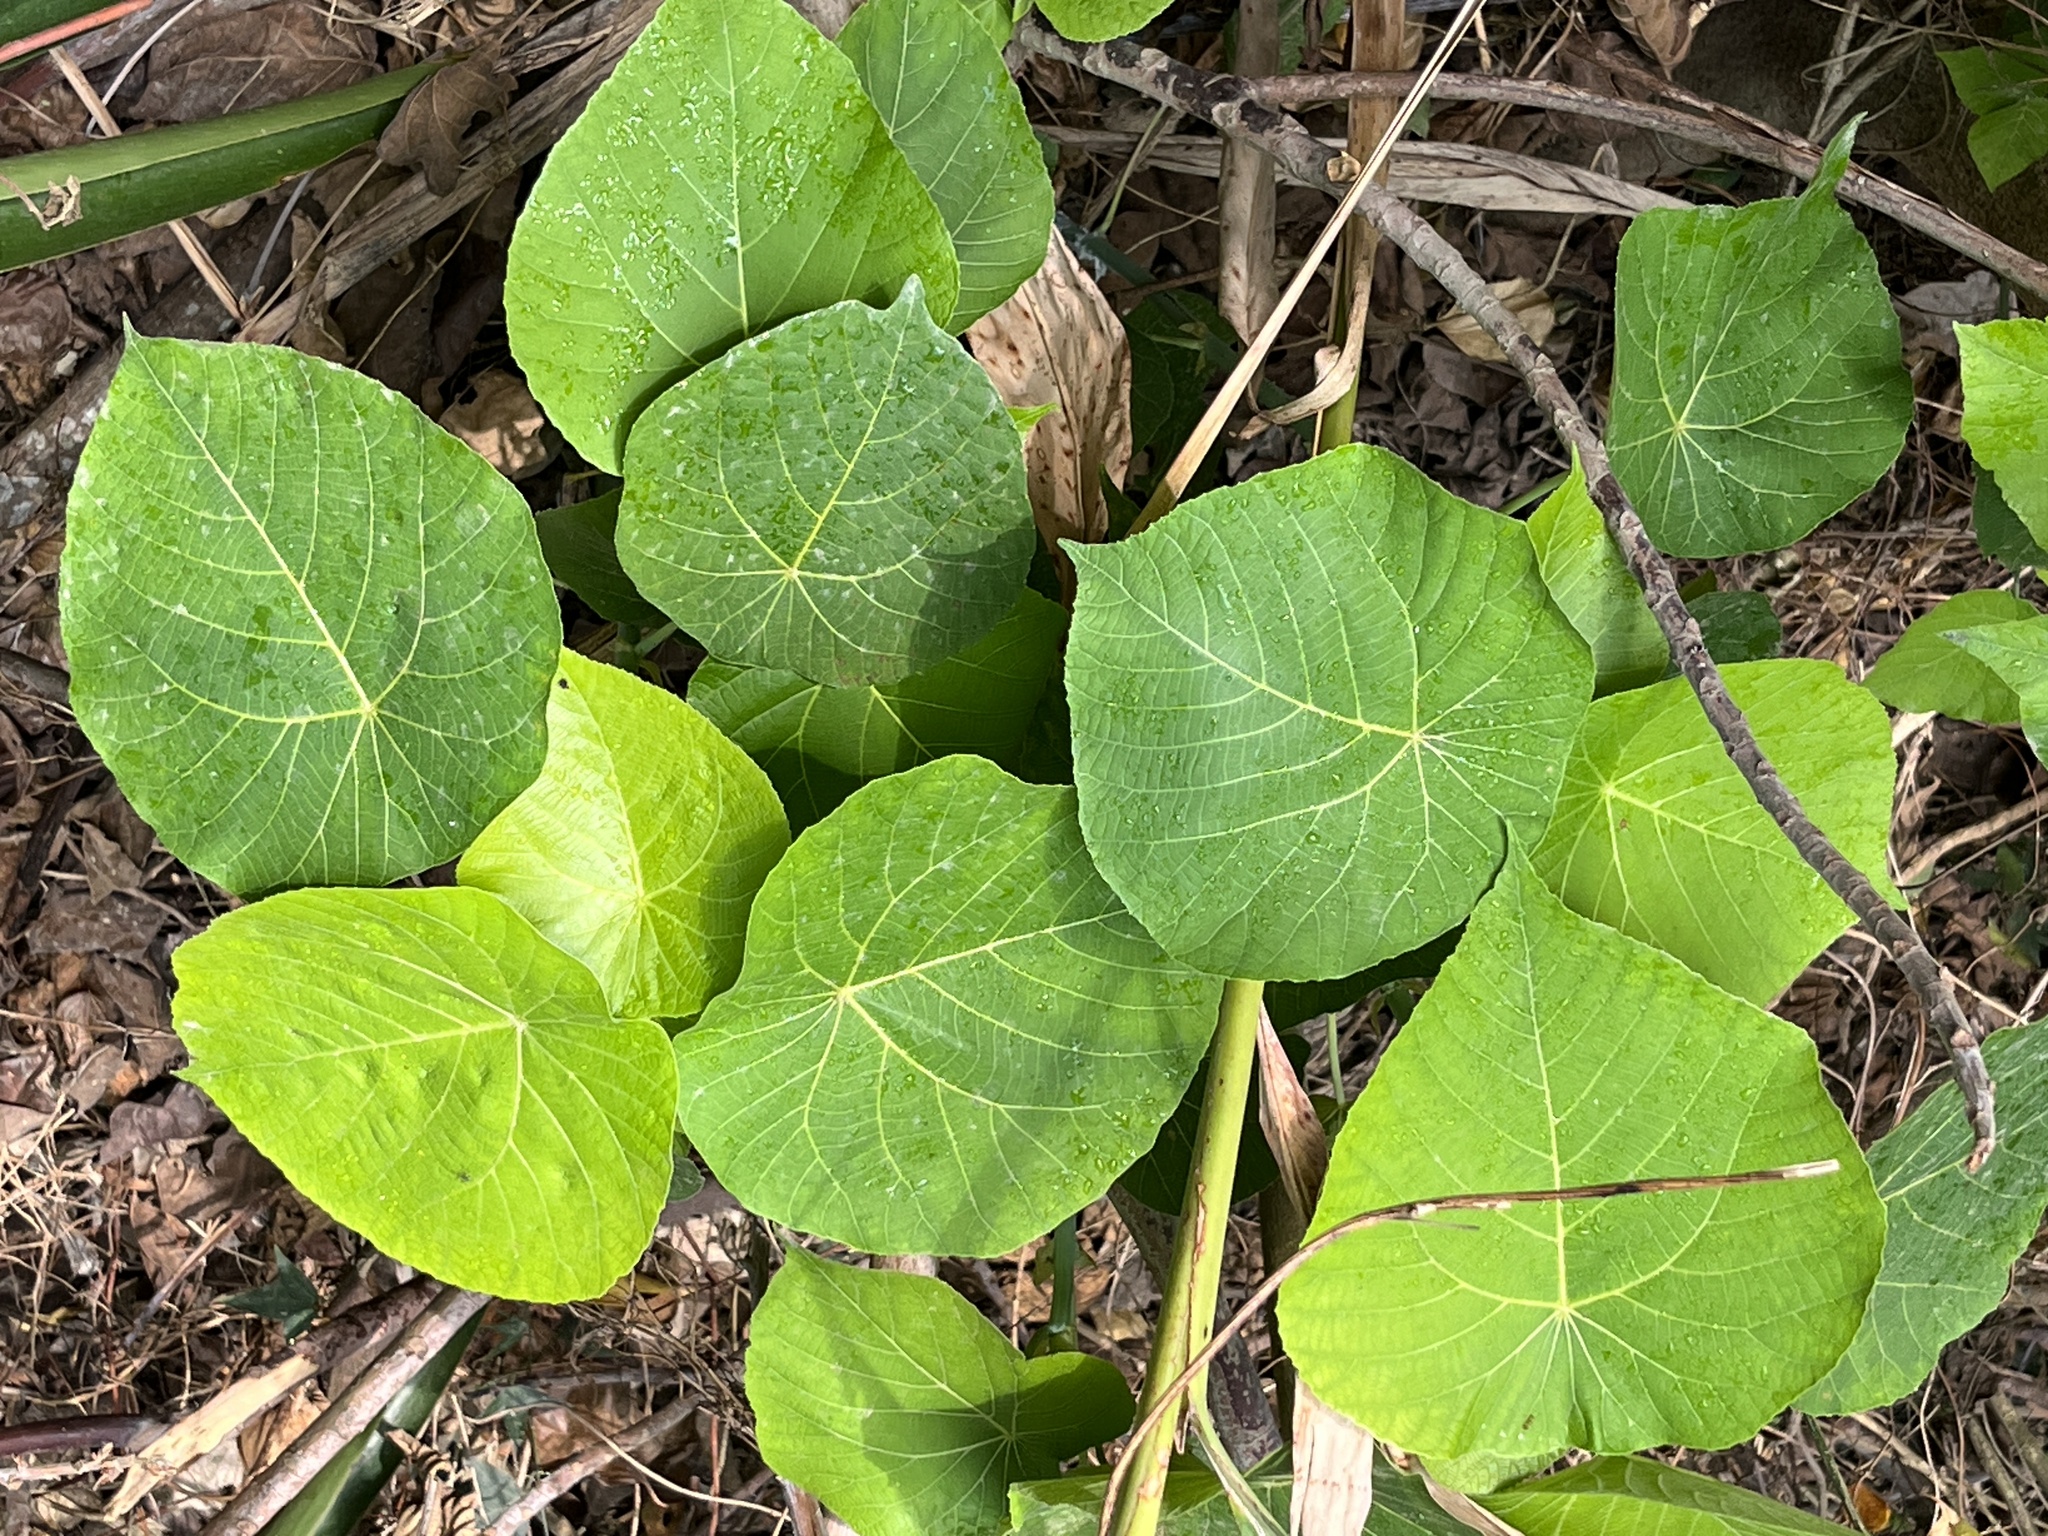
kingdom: Plantae
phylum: Tracheophyta
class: Magnoliopsida
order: Malpighiales
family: Euphorbiaceae
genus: Macaranga
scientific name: Macaranga tanarius
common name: Parasol leaf tree
